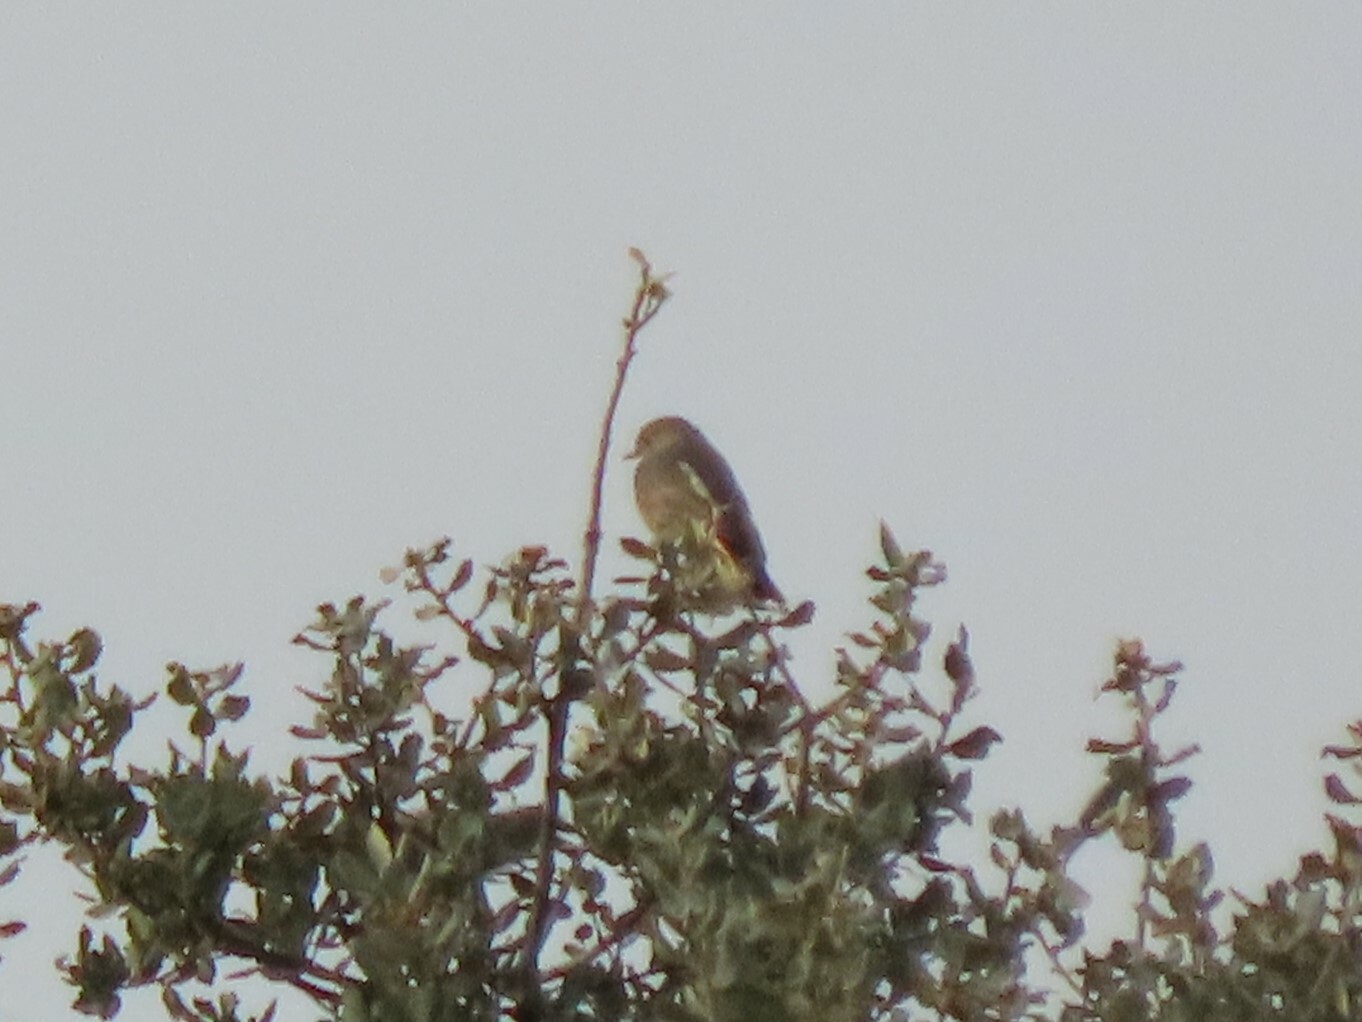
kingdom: Animalia
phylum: Chordata
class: Aves
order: Passeriformes
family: Muscicapidae
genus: Saxicola
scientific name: Saxicola rubicola
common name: European stonechat
